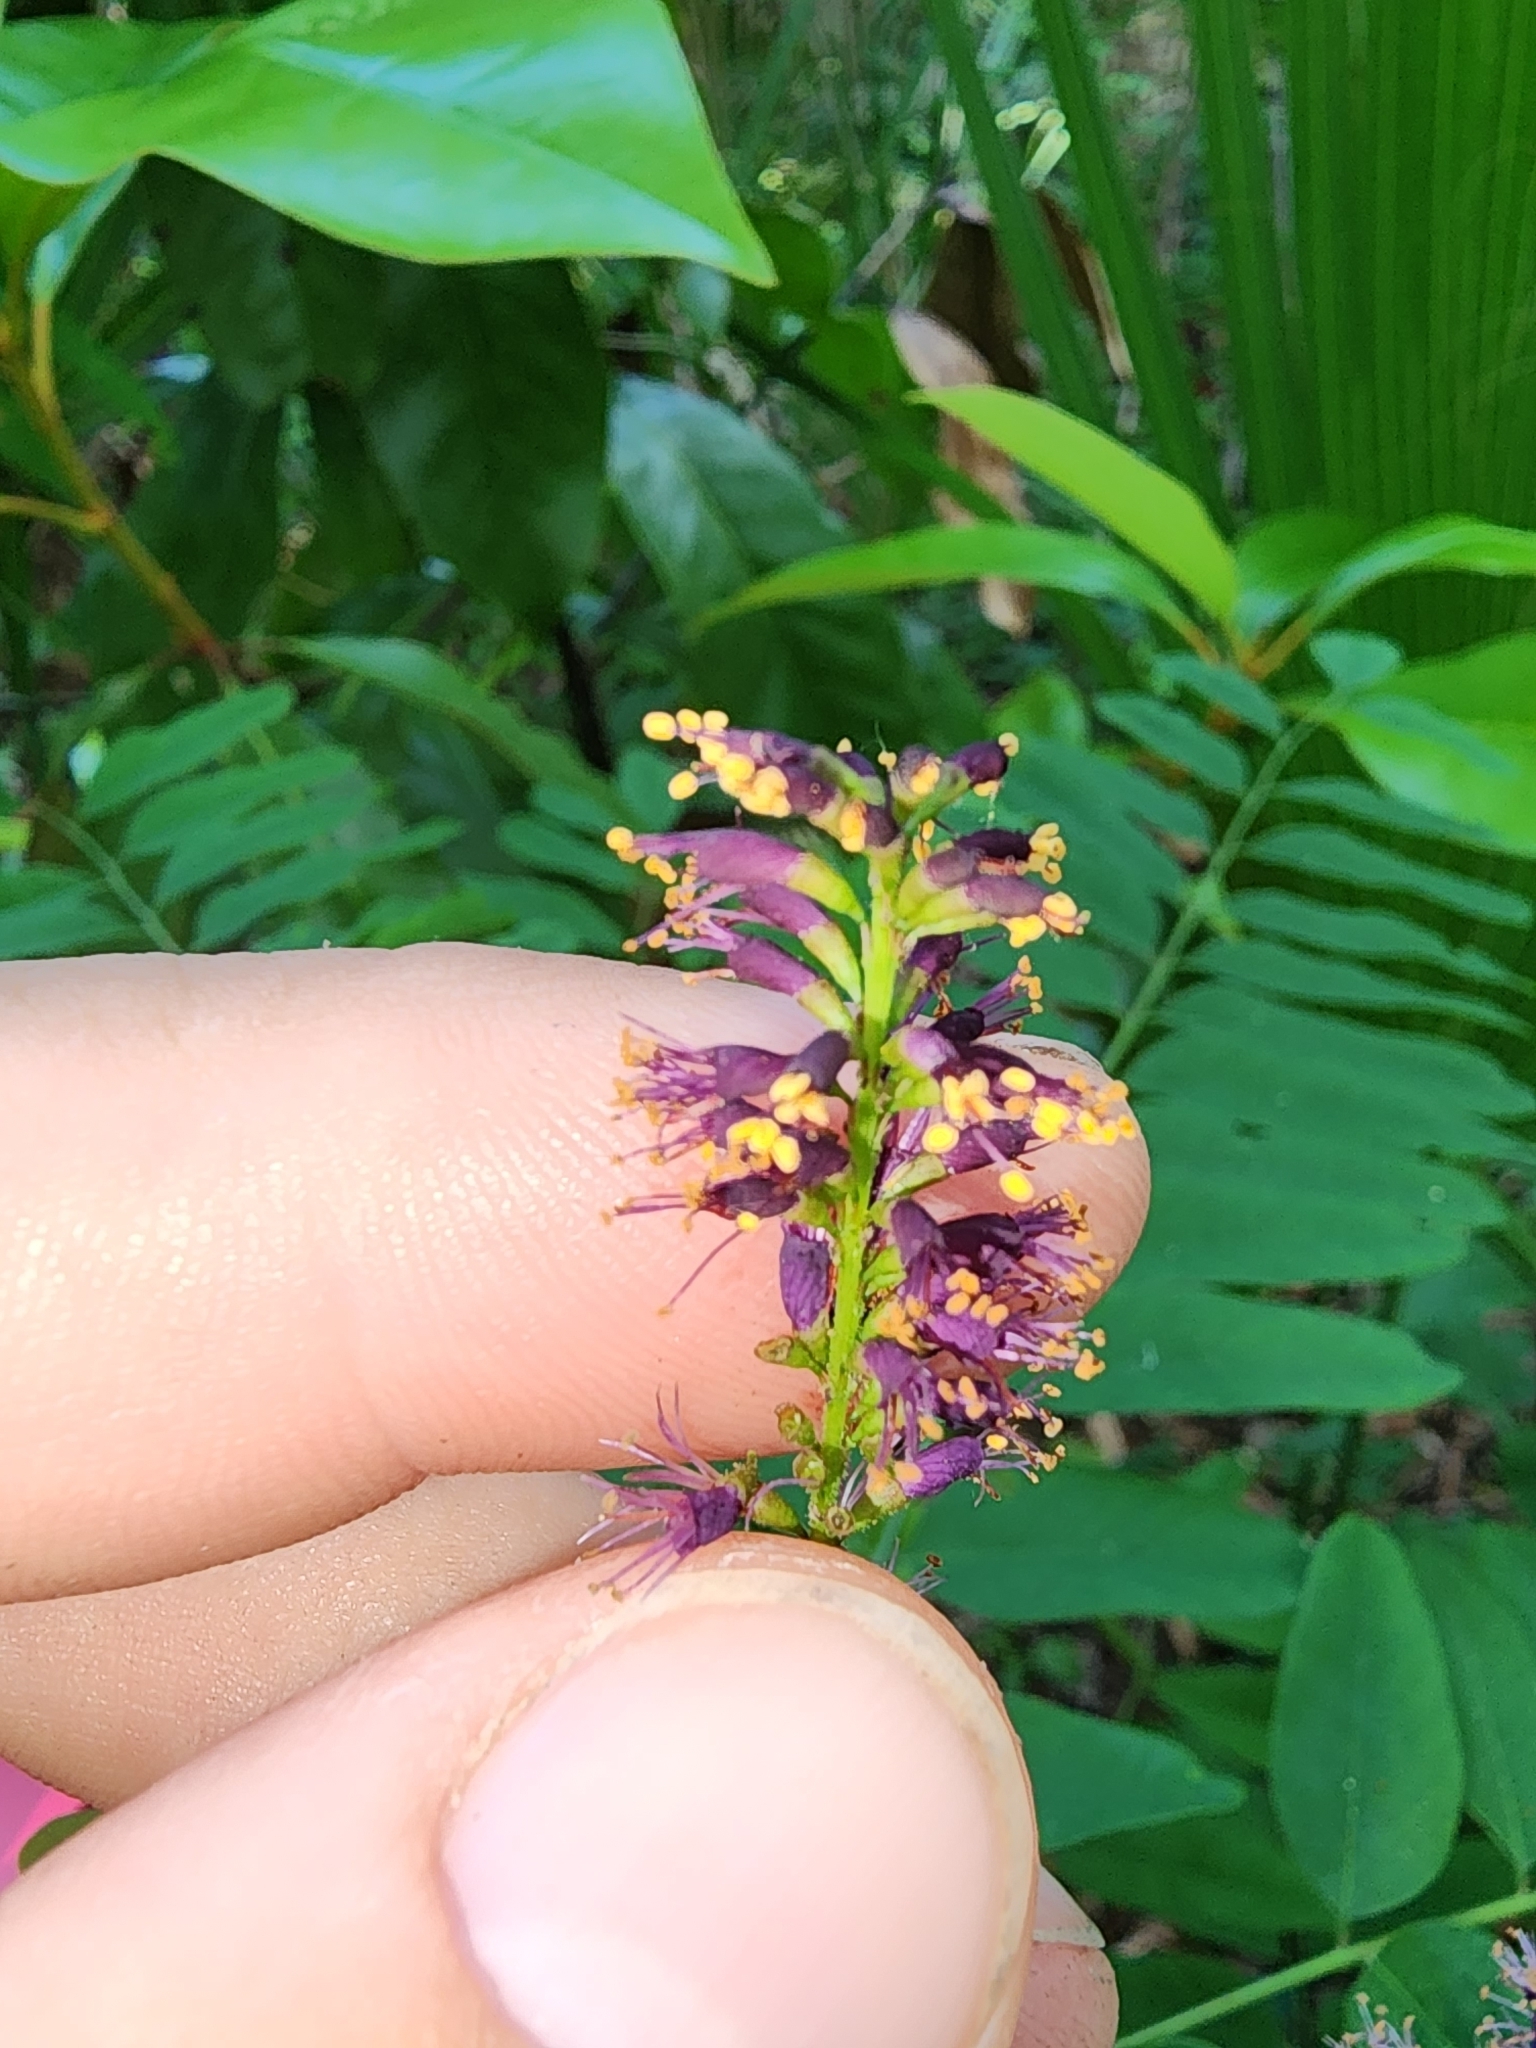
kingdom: Plantae
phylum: Tracheophyta
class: Magnoliopsida
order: Fabales
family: Fabaceae
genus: Amorpha
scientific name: Amorpha fruticosa
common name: False indigo
